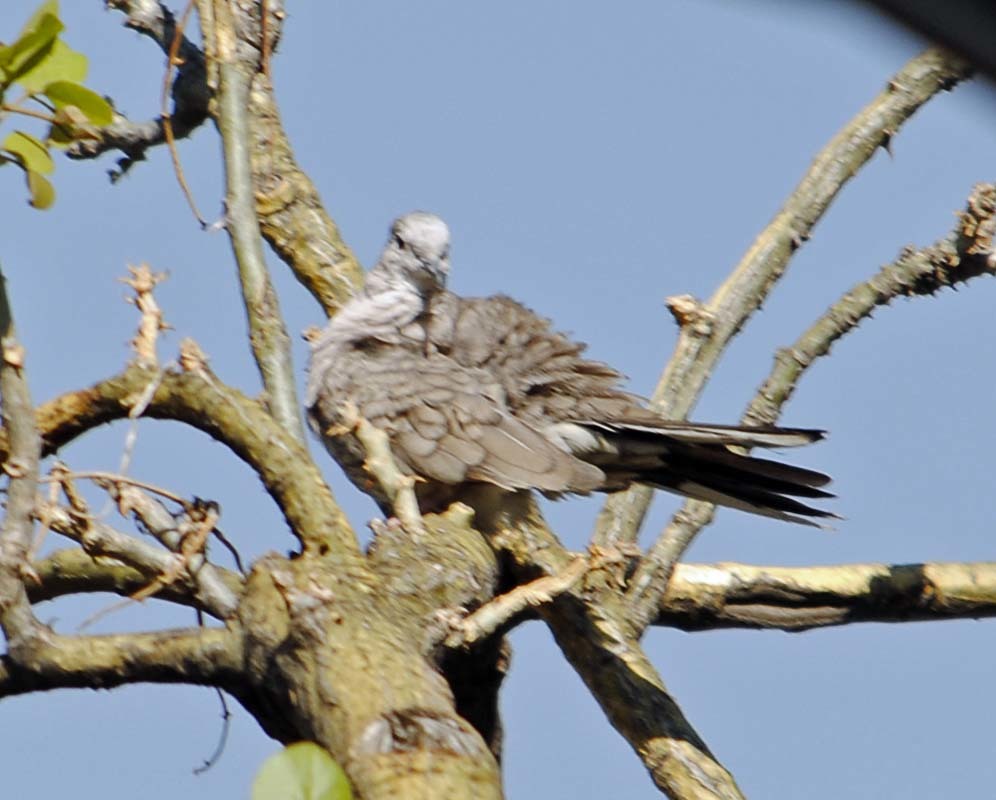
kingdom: Animalia
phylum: Chordata
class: Aves
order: Columbiformes
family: Columbidae
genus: Columbina
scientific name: Columbina inca
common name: Inca dove
